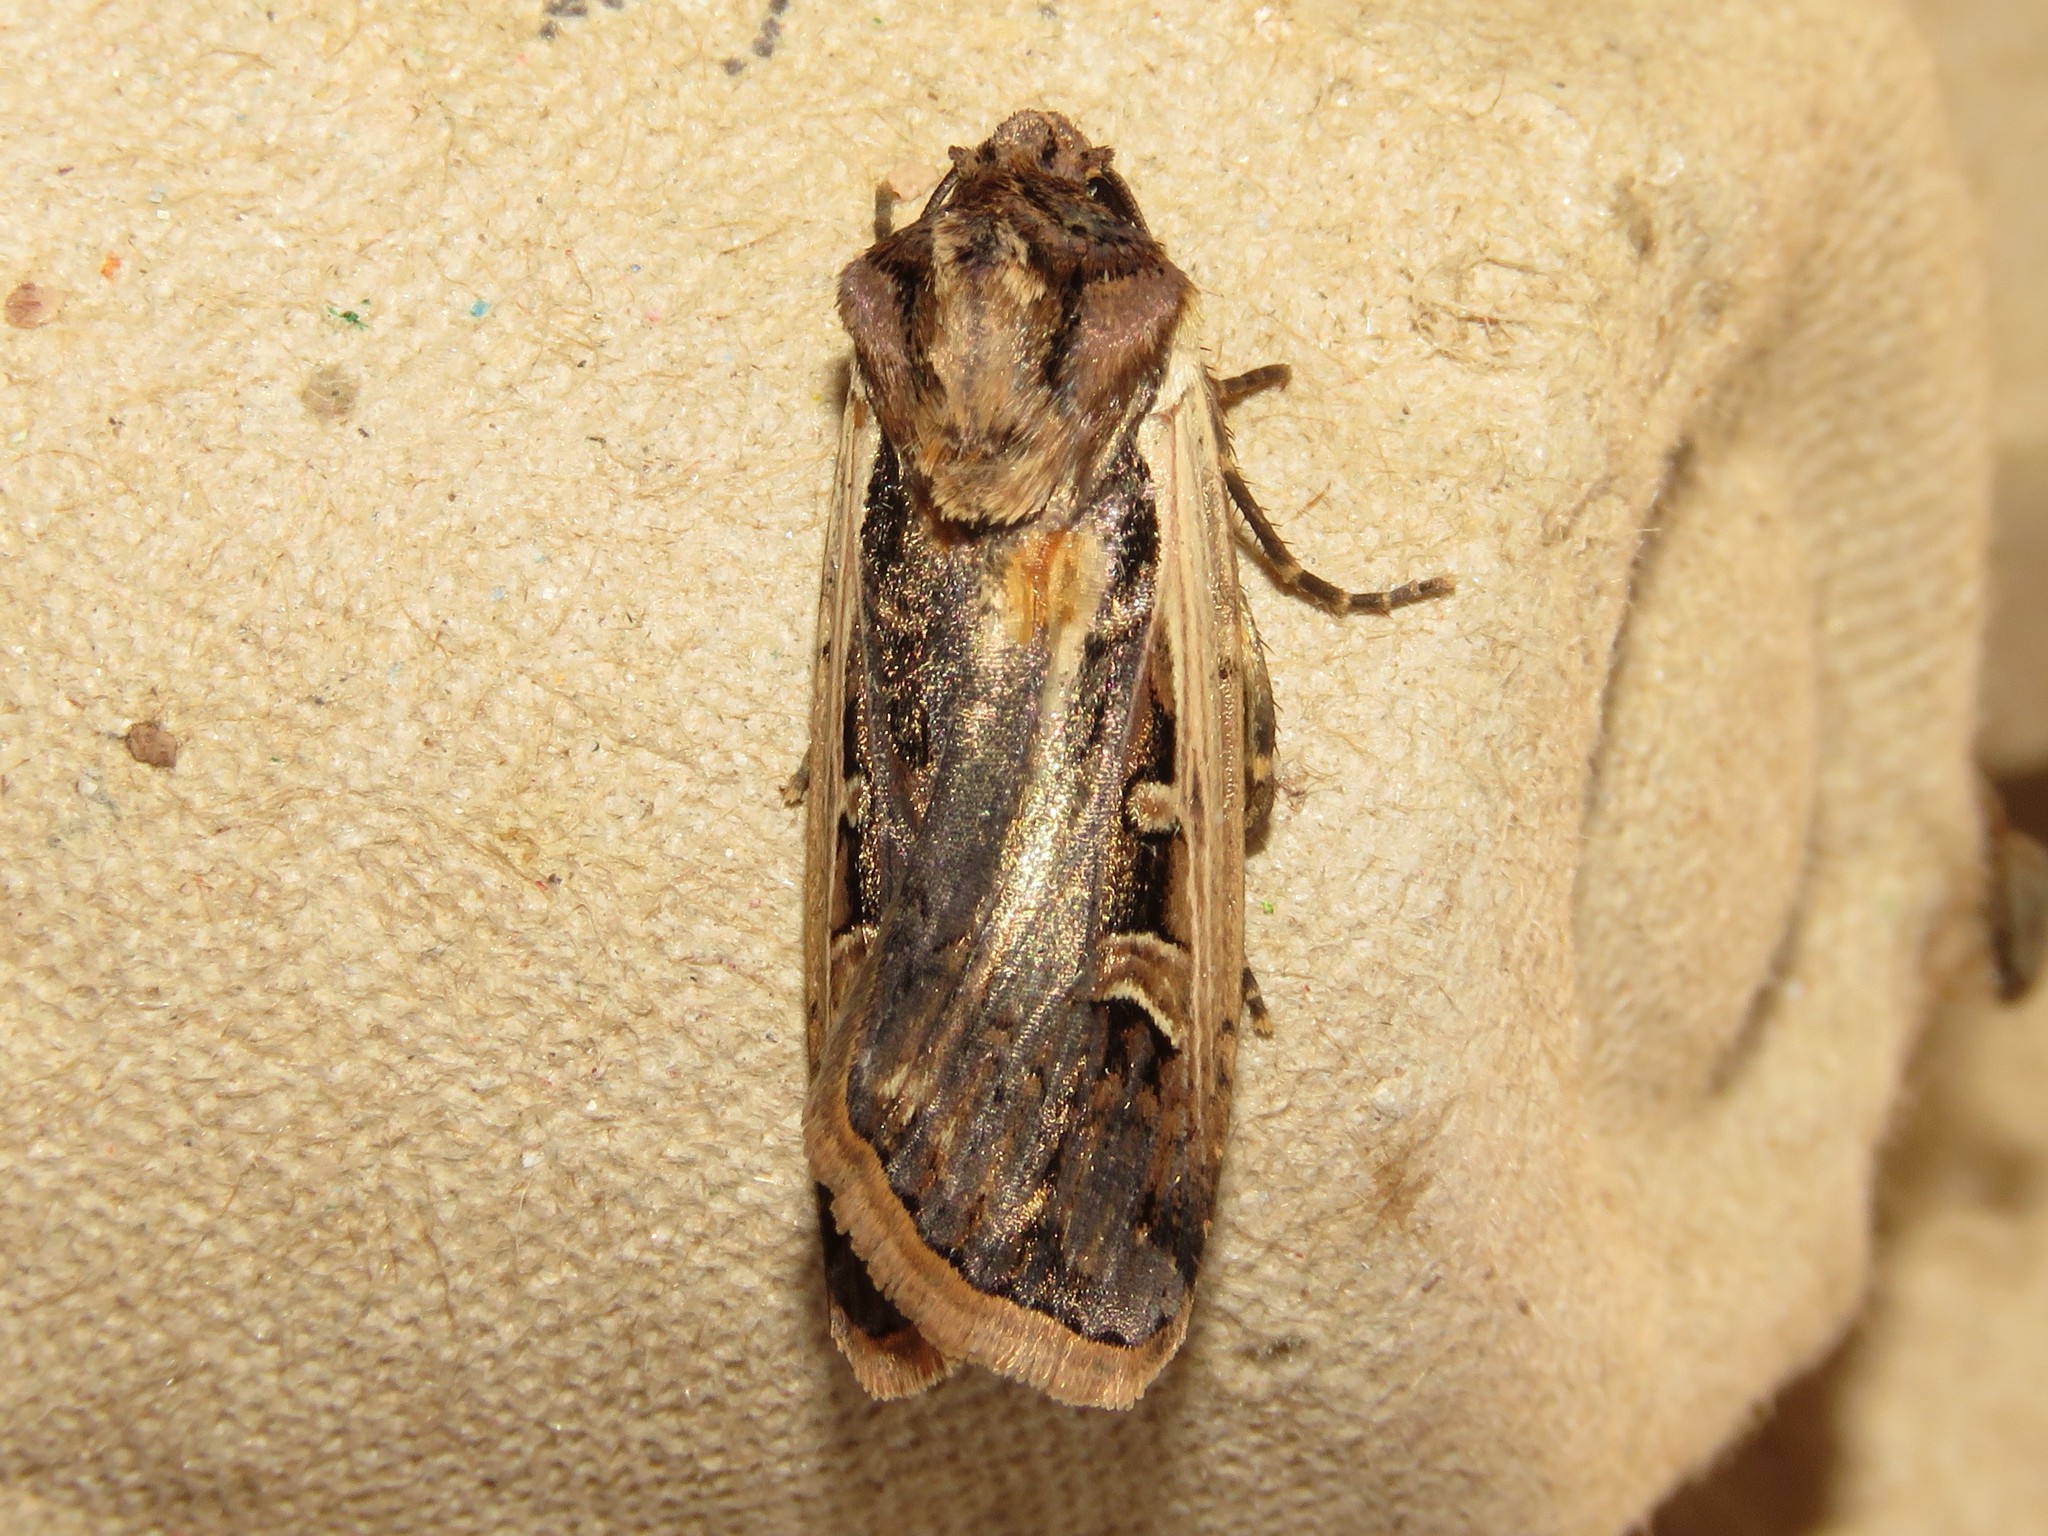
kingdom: Animalia
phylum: Arthropoda
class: Insecta
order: Lepidoptera
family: Noctuidae
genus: Striacosta
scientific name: Striacosta albicosta
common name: Western bean cutworm moth
